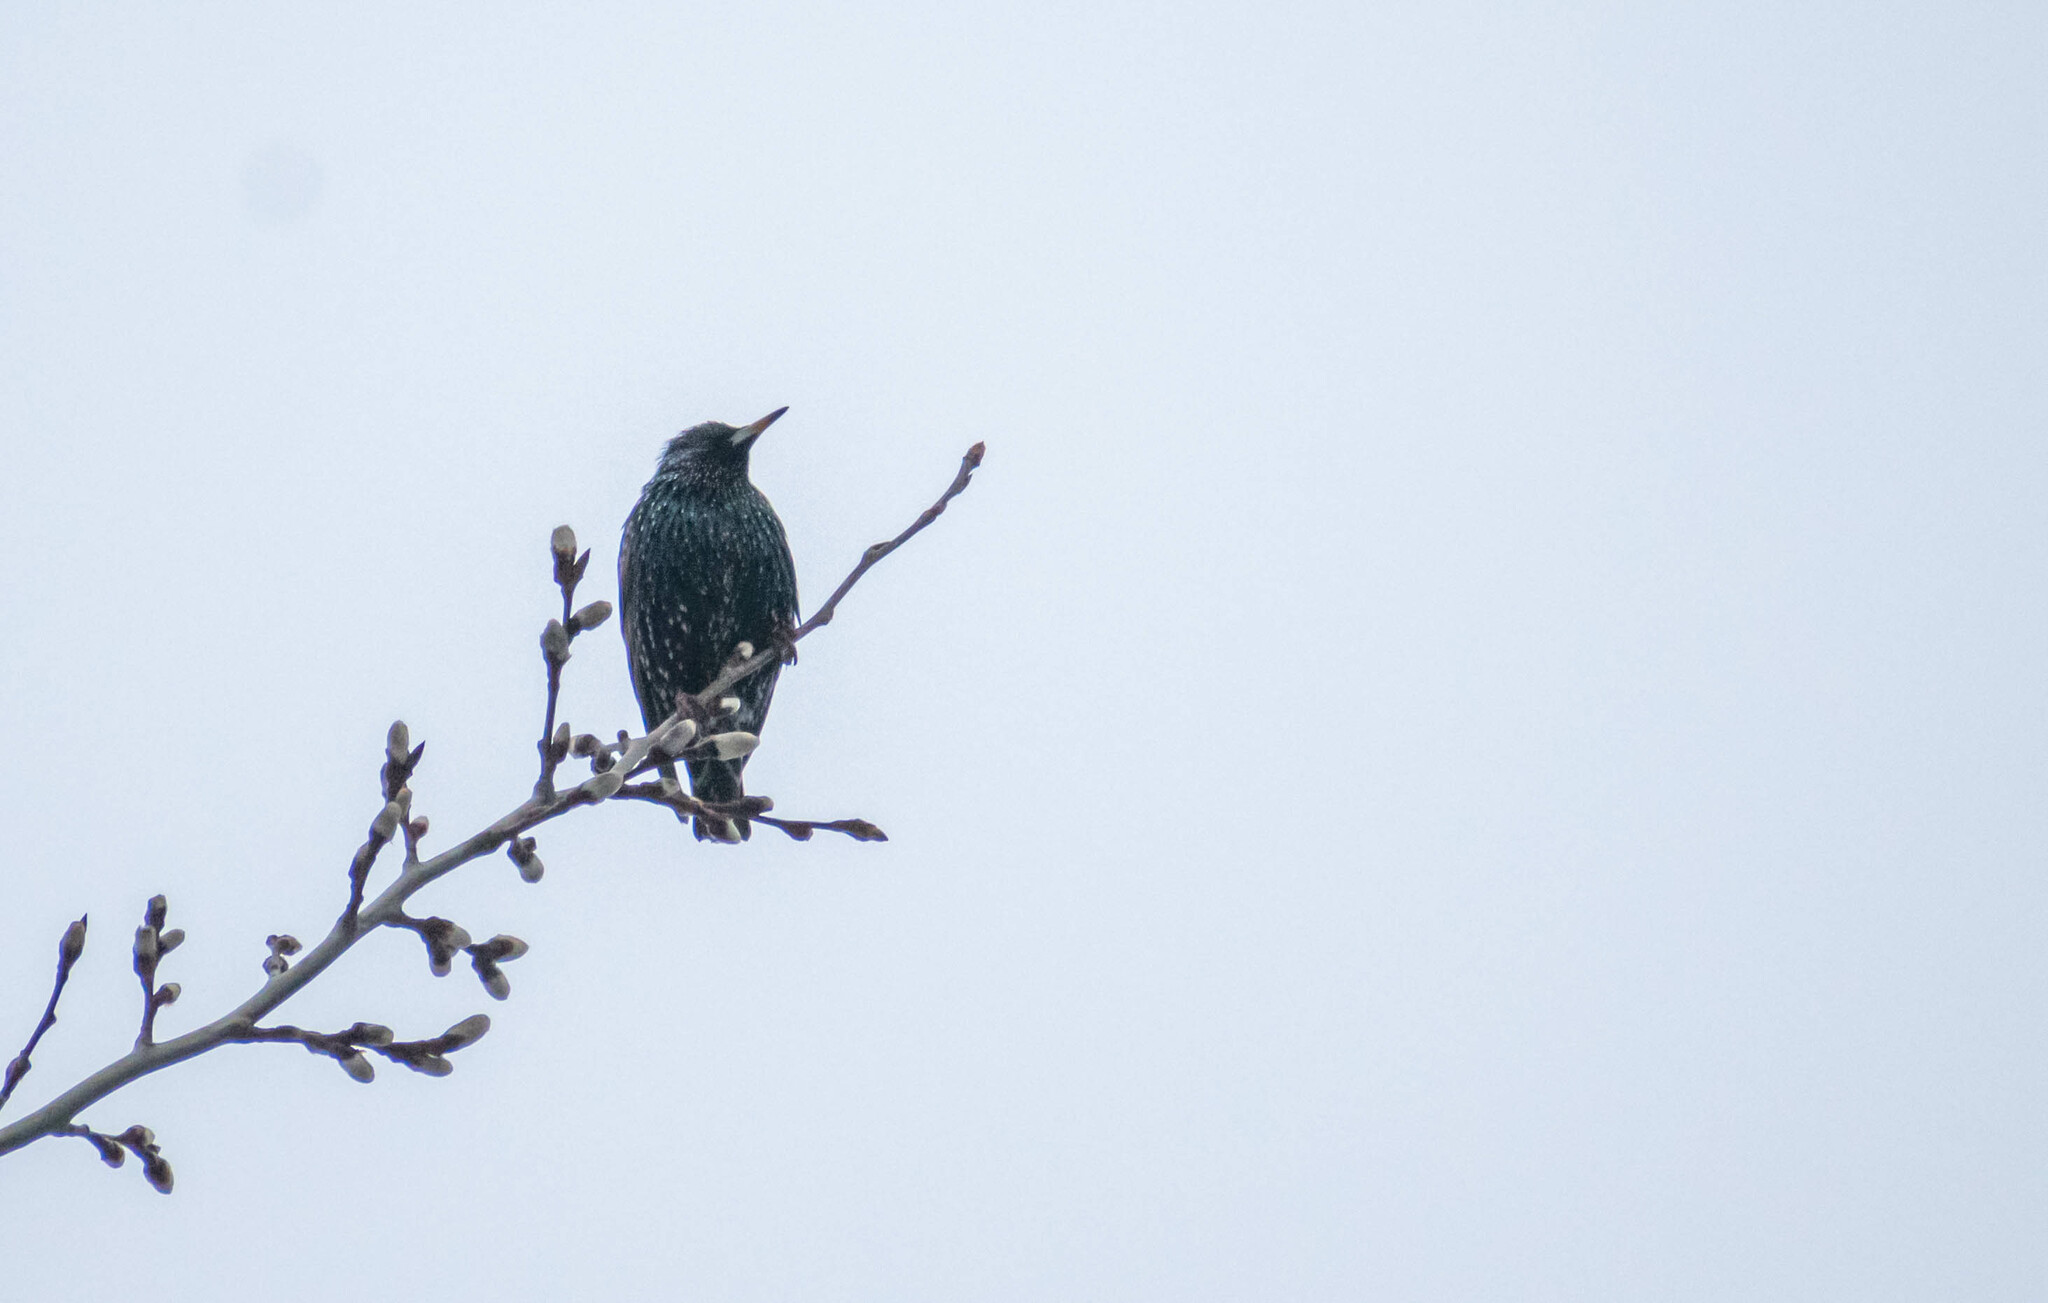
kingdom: Animalia
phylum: Chordata
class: Aves
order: Passeriformes
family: Sturnidae
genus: Sturnus
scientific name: Sturnus vulgaris
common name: Common starling
